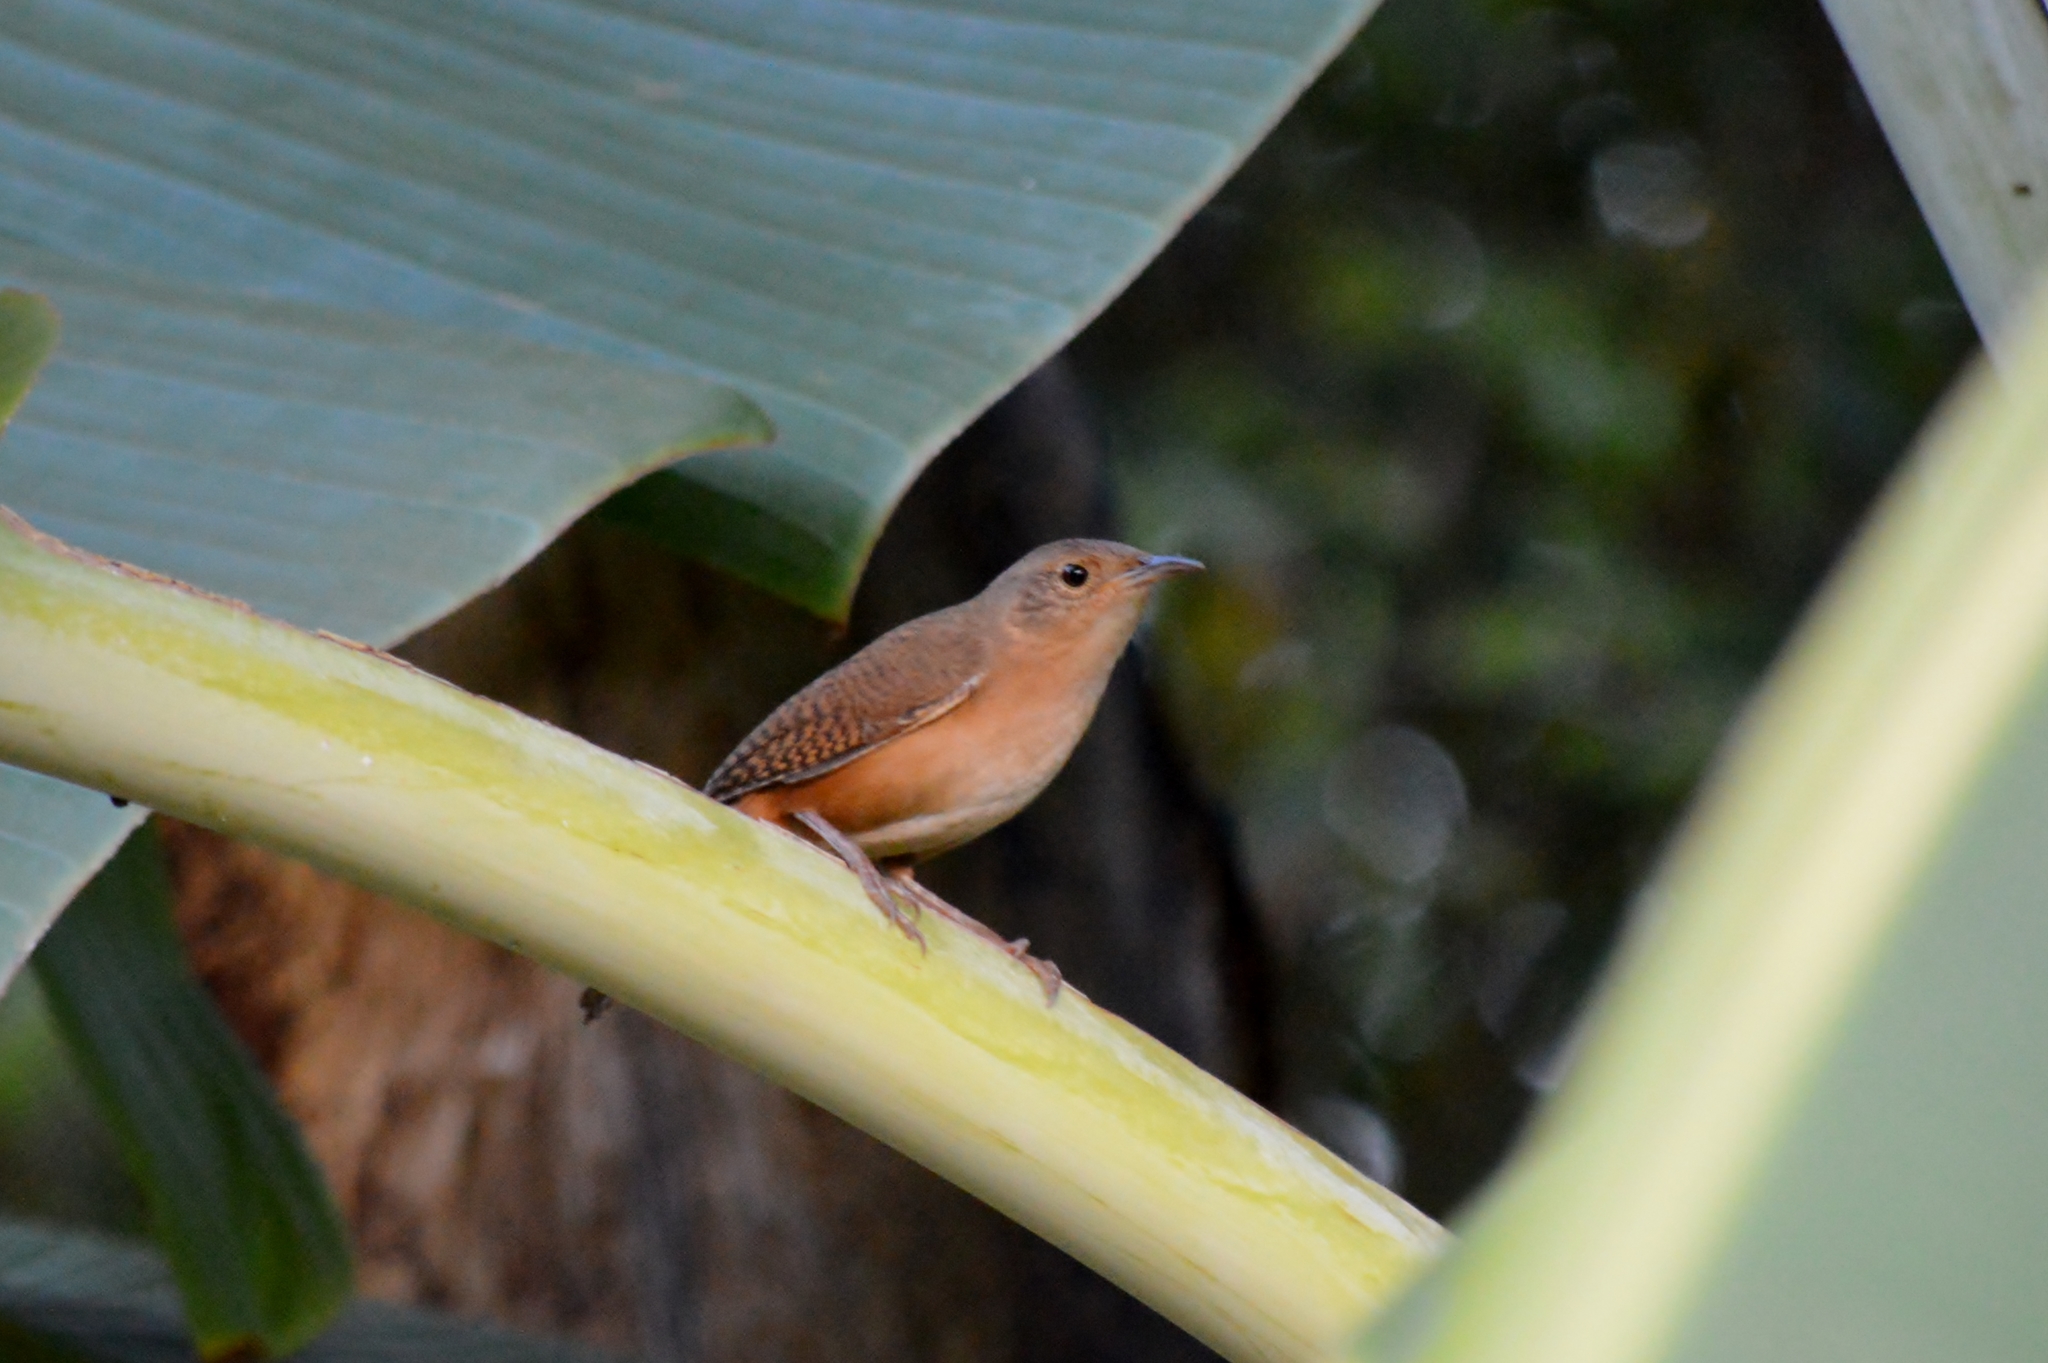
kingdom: Animalia
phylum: Chordata
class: Aves
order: Passeriformes
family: Troglodytidae
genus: Troglodytes
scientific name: Troglodytes aedon
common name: House wren
